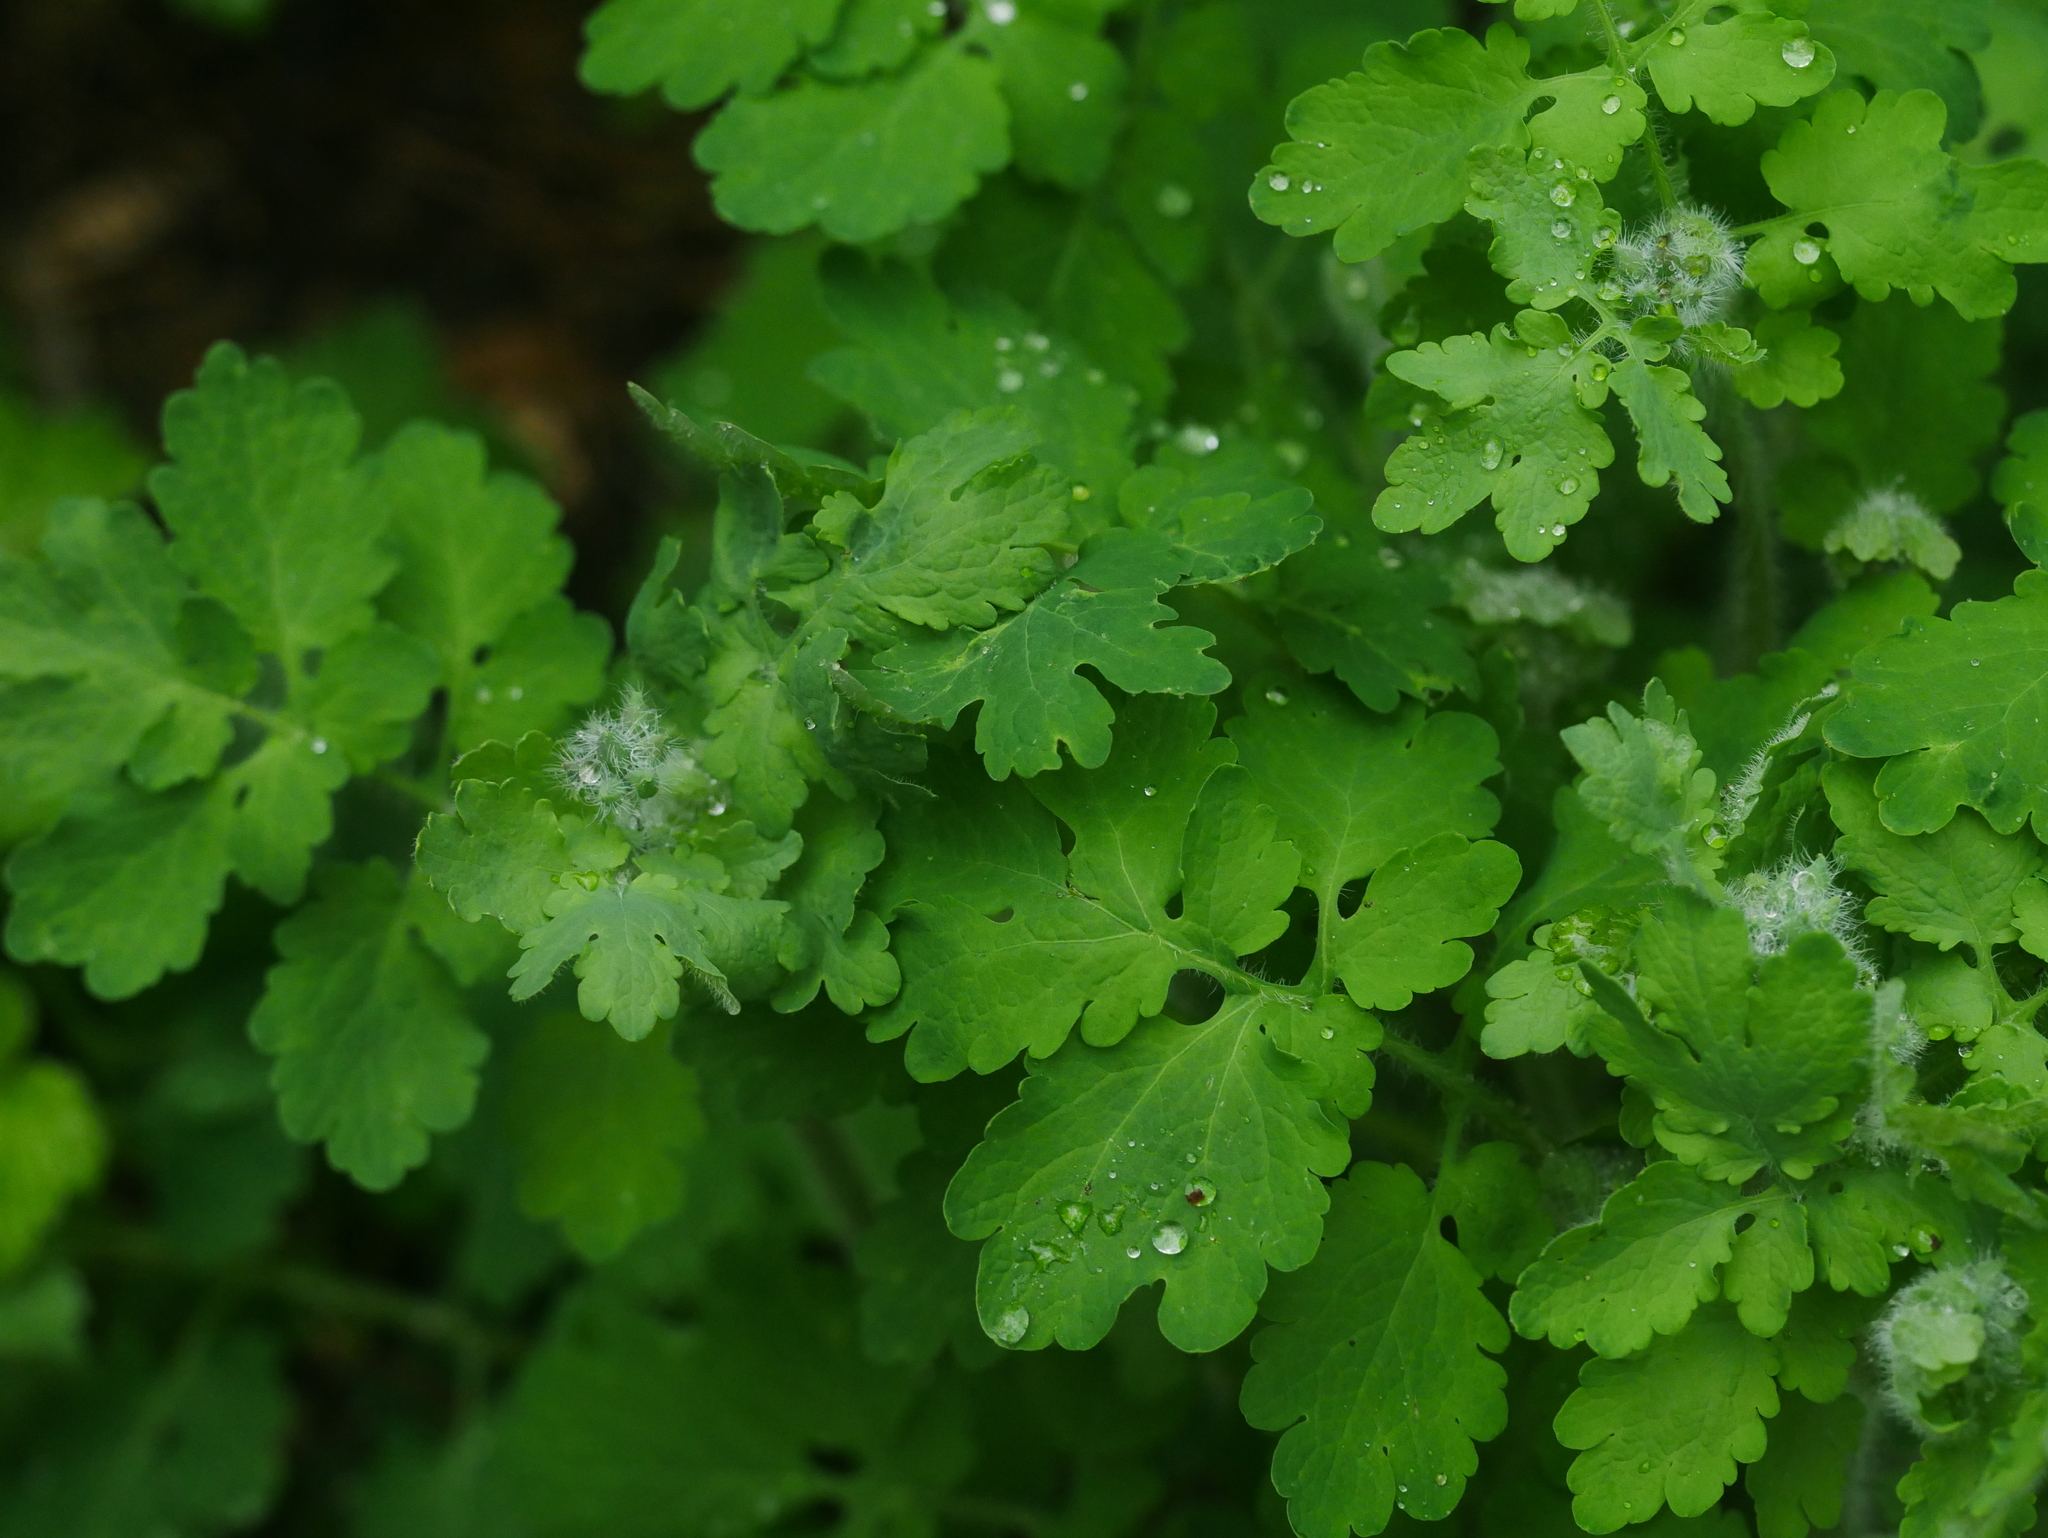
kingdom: Plantae
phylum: Tracheophyta
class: Magnoliopsida
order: Ranunculales
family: Papaveraceae
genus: Chelidonium
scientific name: Chelidonium majus
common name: Greater celandine
